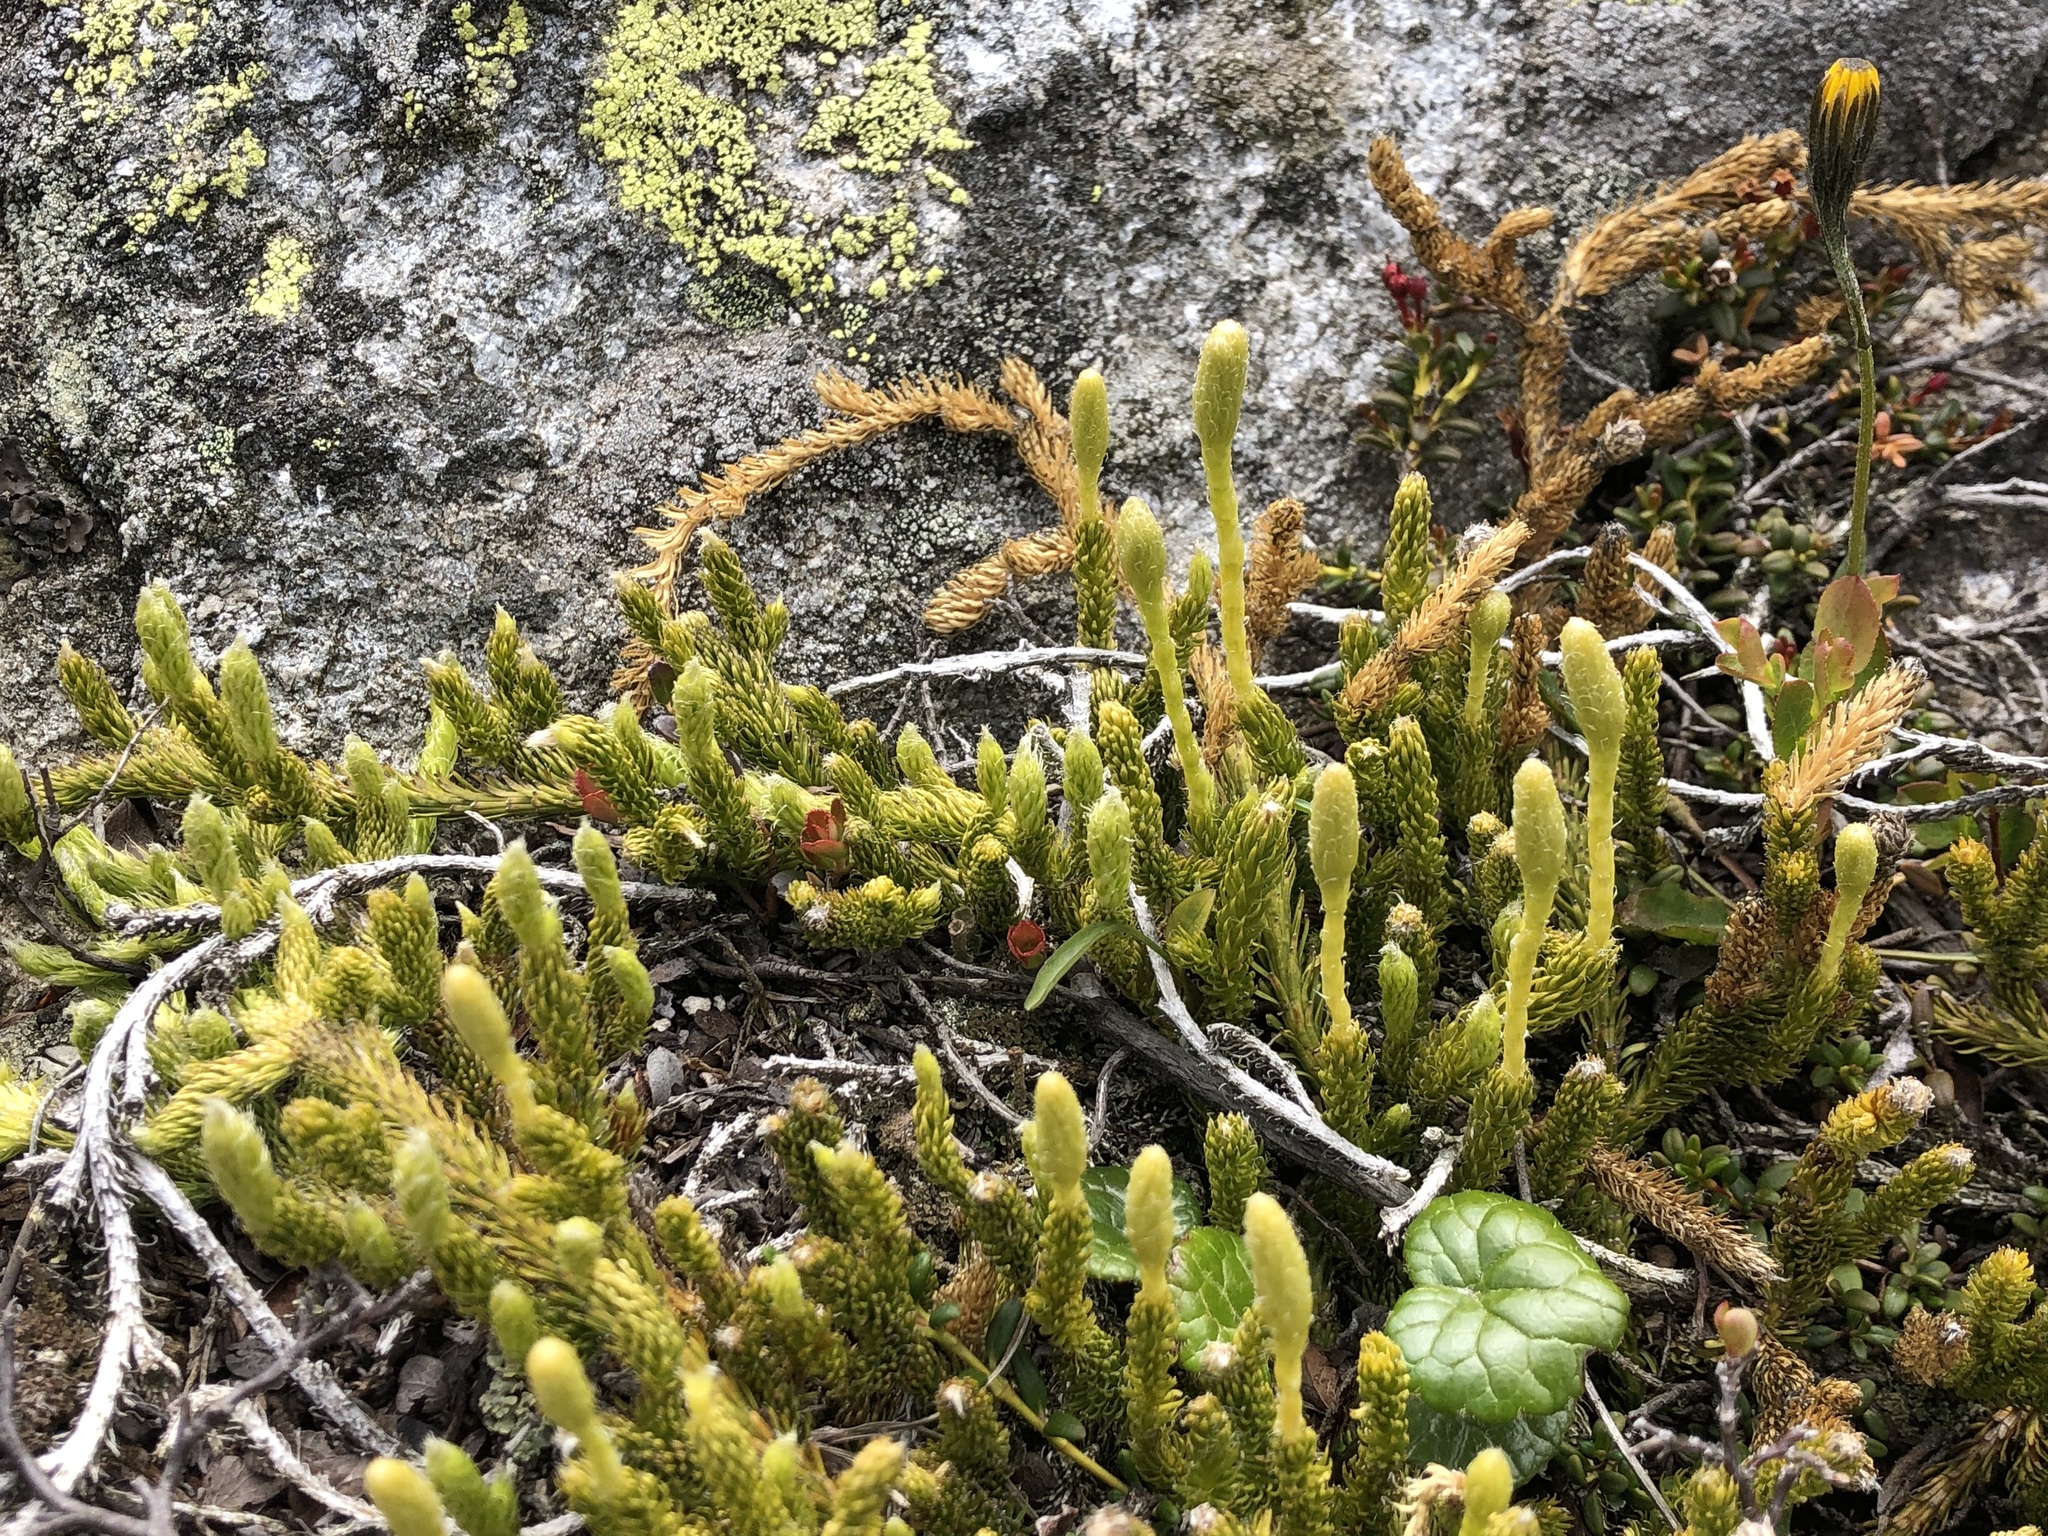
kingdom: Plantae
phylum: Tracheophyta
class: Lycopodiopsida
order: Lycopodiales
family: Lycopodiaceae
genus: Lycopodium
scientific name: Lycopodium lagopus
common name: One-cone clubmoss
